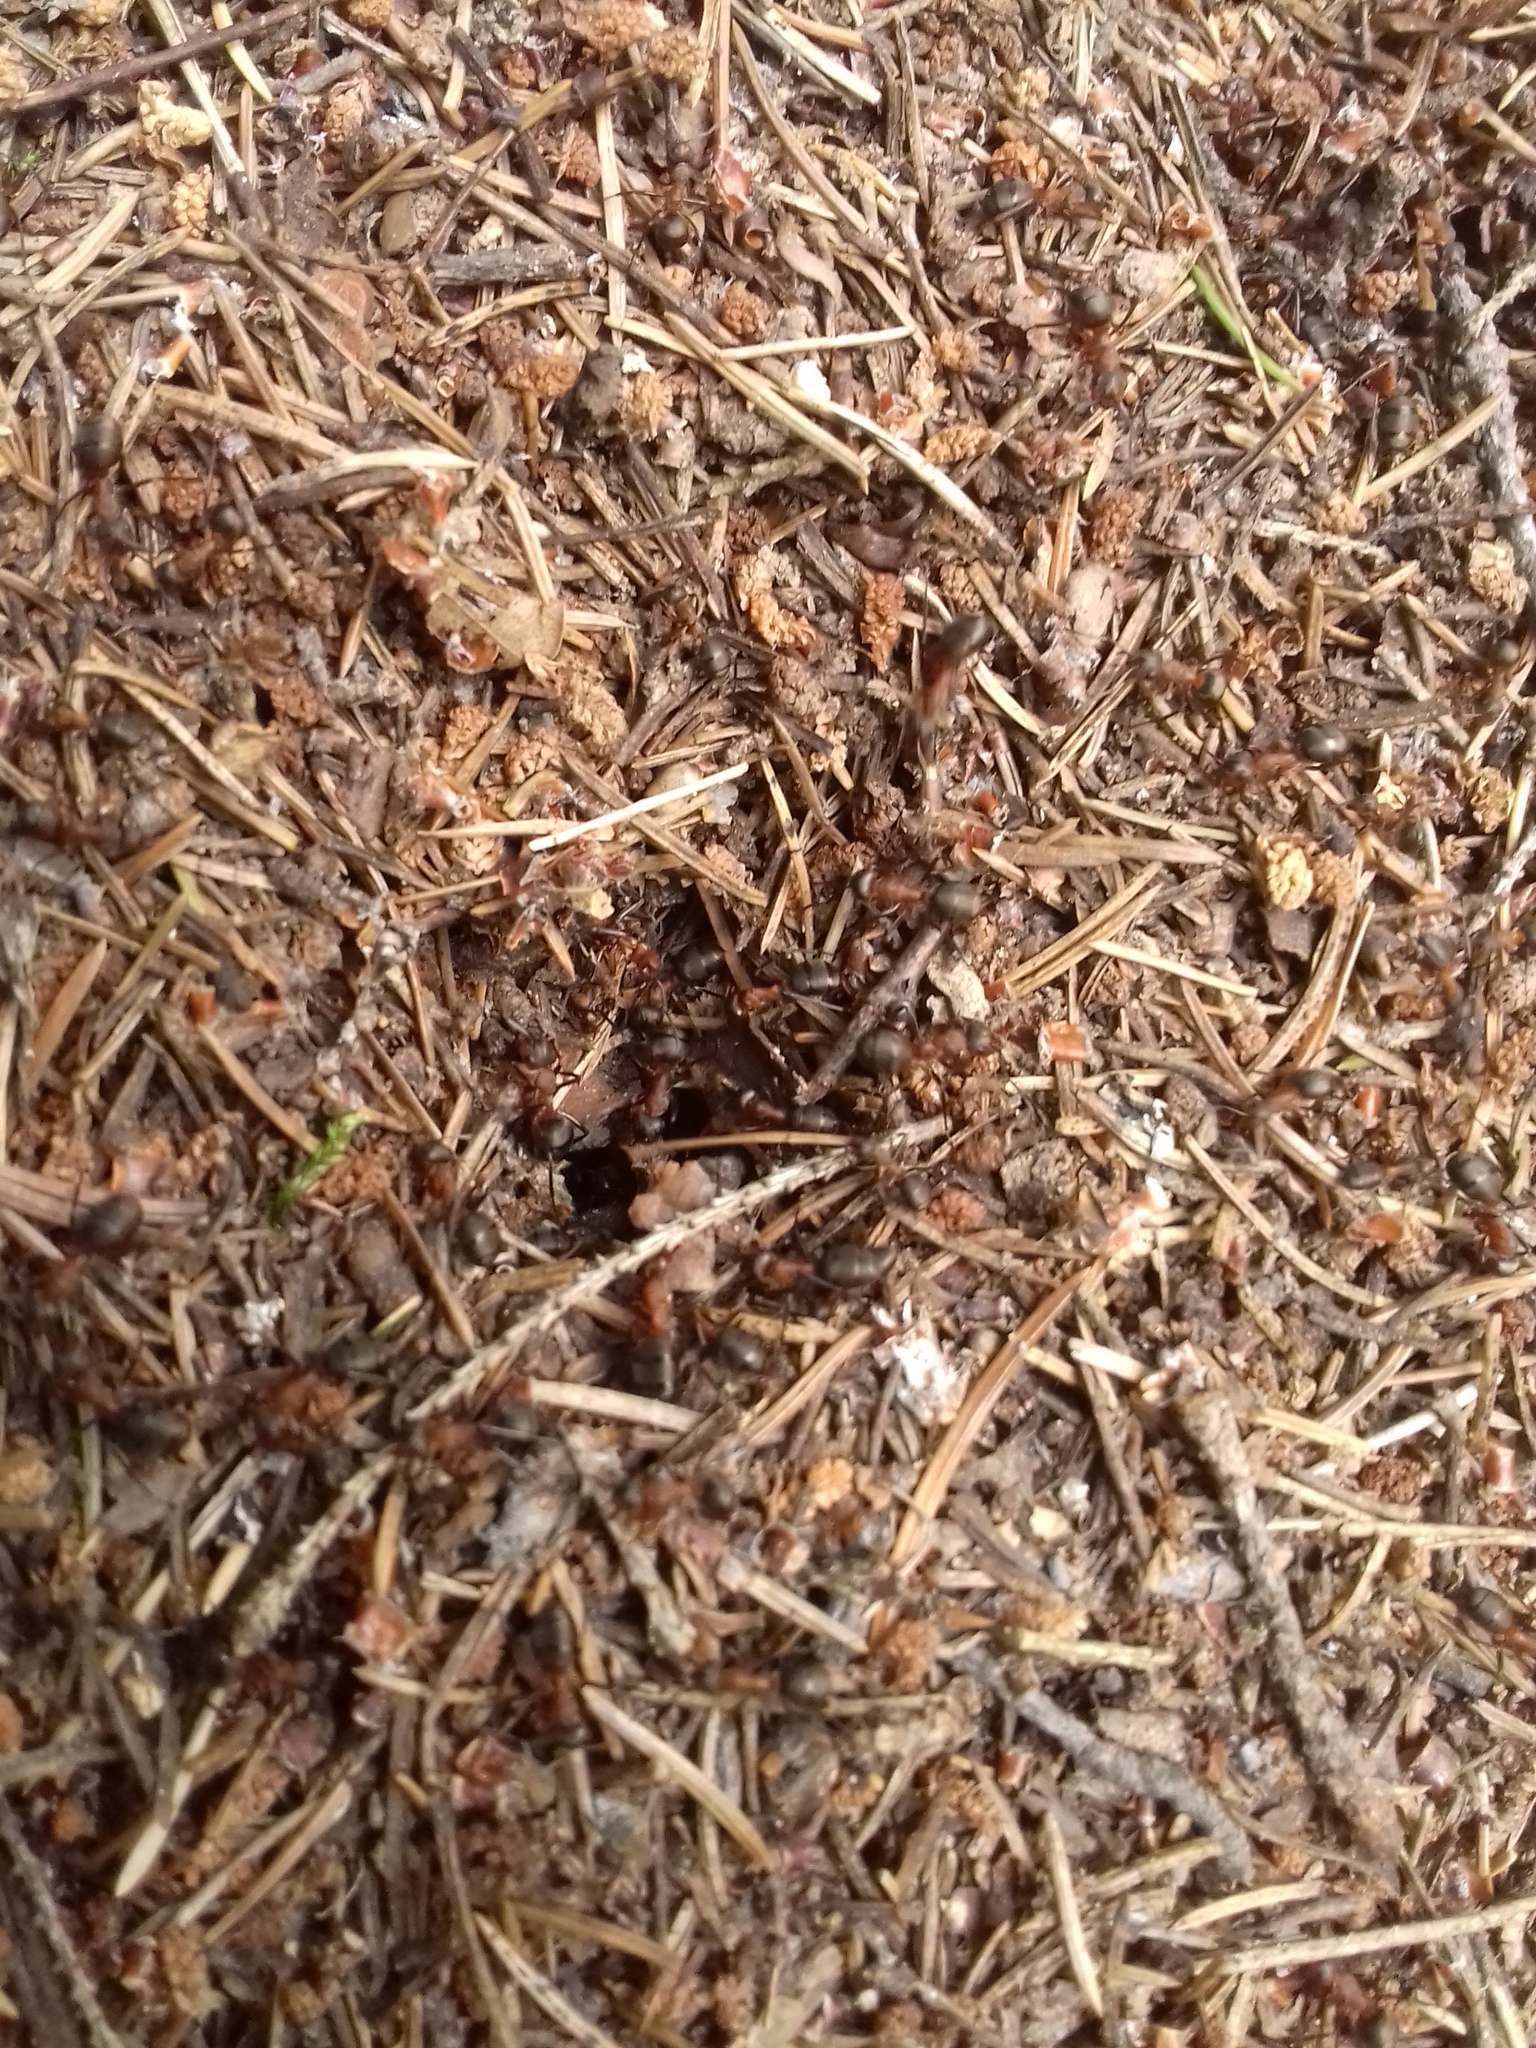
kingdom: Animalia
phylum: Arthropoda
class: Insecta
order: Hymenoptera
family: Formicidae
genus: Formica
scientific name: Formica rufa
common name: Red wood ant
